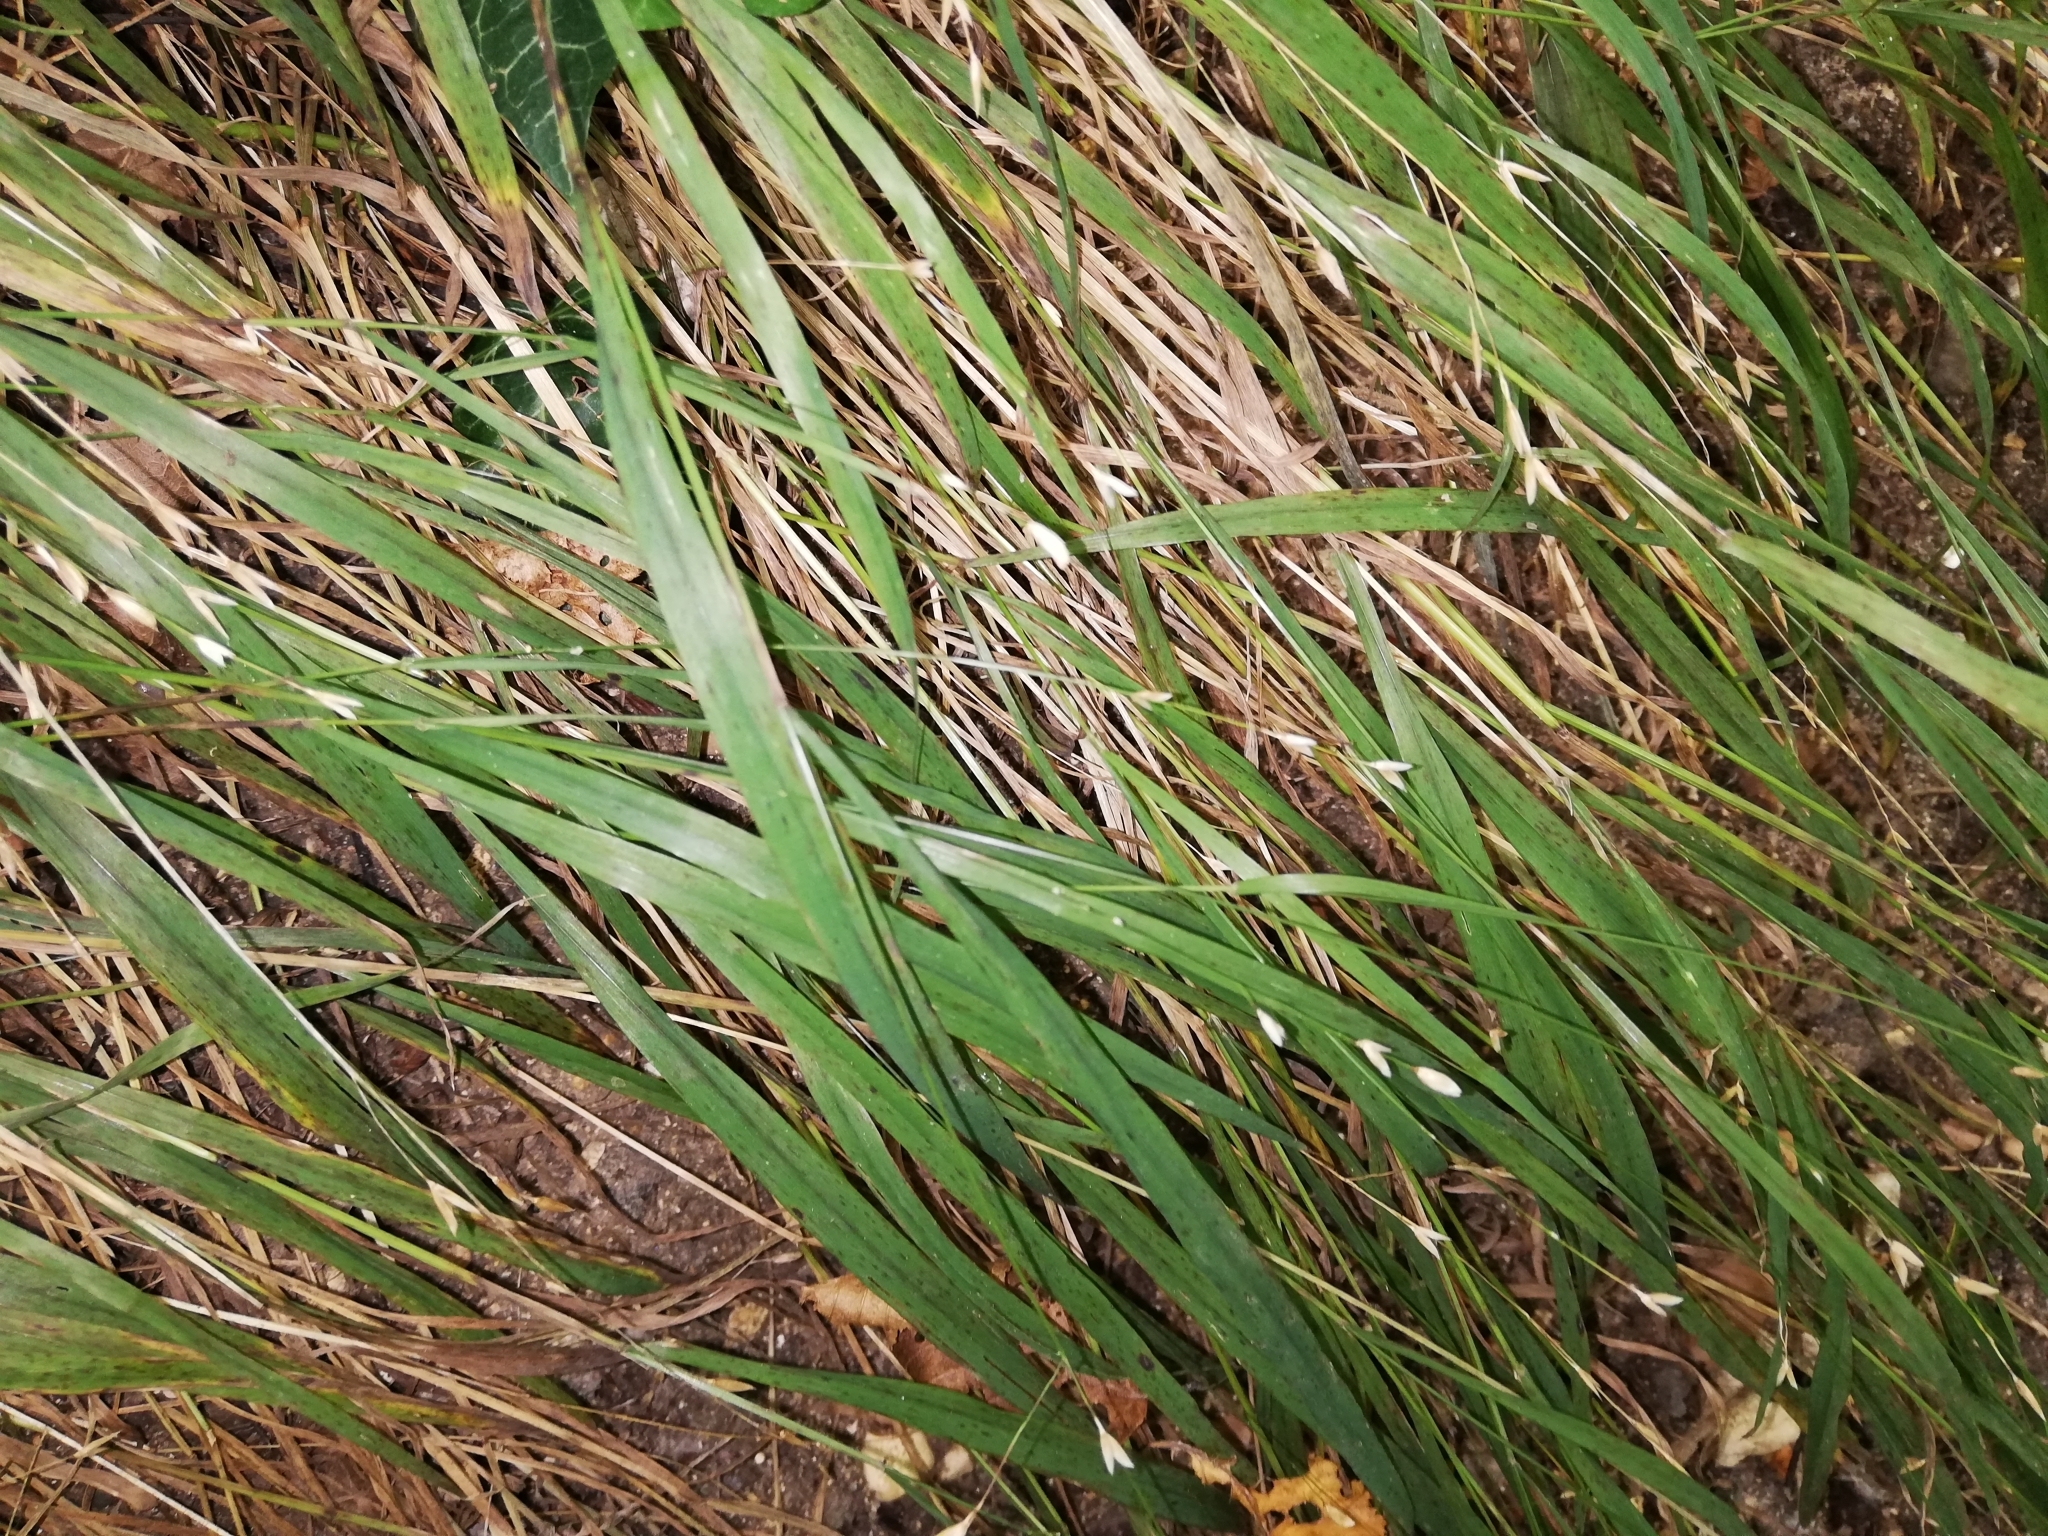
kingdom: Plantae
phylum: Tracheophyta
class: Liliopsida
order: Poales
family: Poaceae
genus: Melica
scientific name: Melica uniflora
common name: Wood melick
